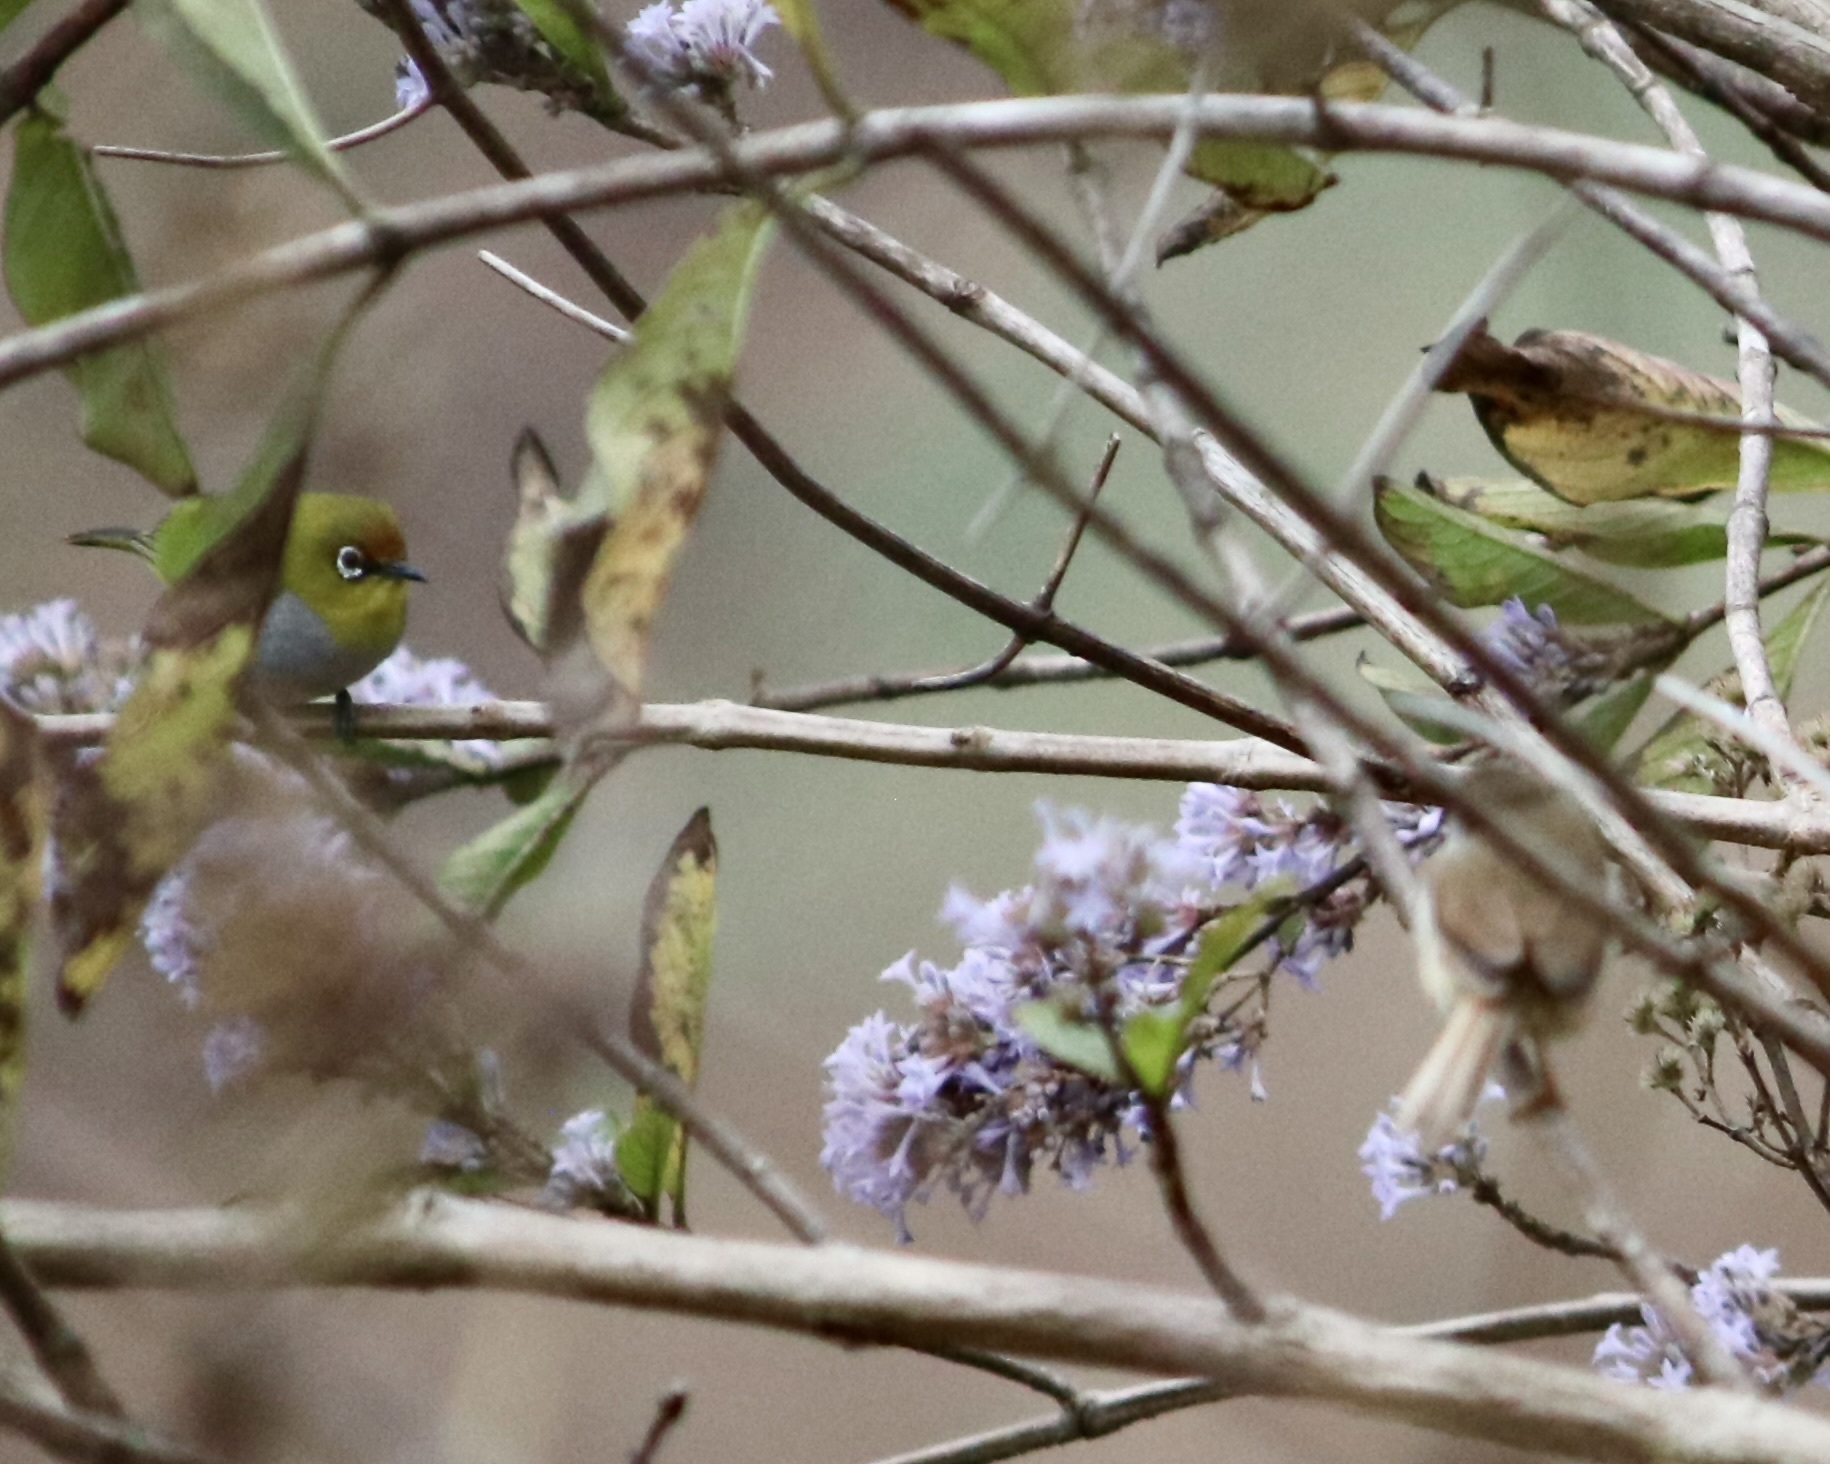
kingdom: Animalia
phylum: Chordata
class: Aves
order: Passeriformes
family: Zosteropidae
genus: Zosterops
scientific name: Zosterops palpebrosus
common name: Oriental white-eye
